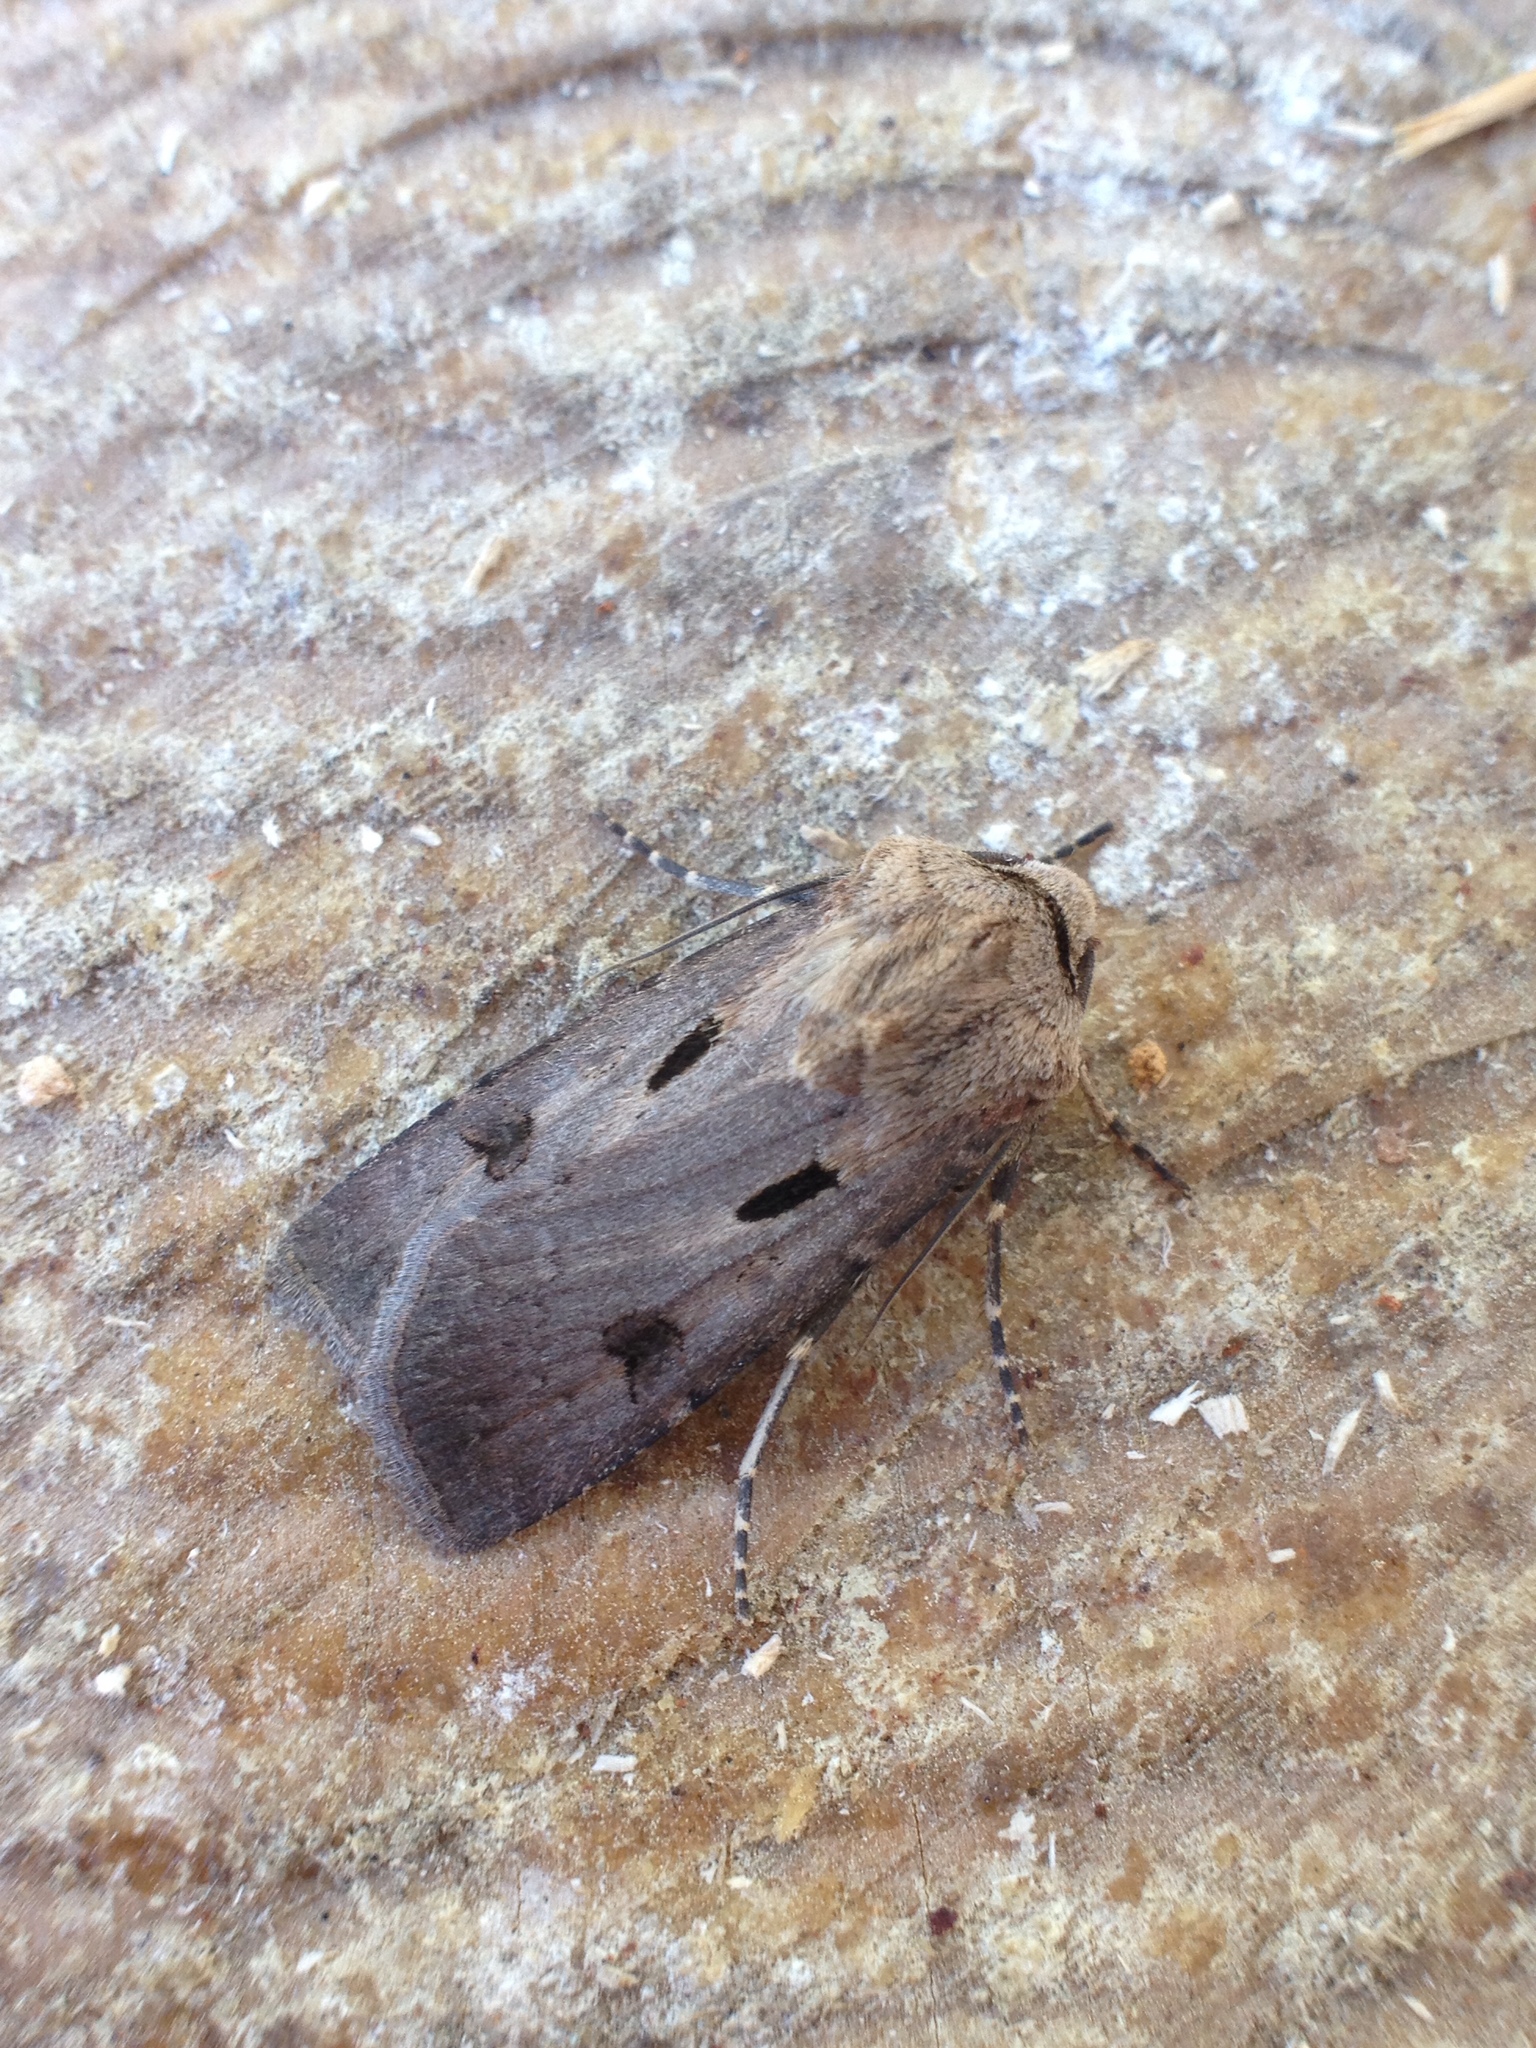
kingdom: Animalia
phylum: Arthropoda
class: Insecta
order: Lepidoptera
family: Noctuidae
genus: Agrotis
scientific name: Agrotis exclamationis
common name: Heart and dart
